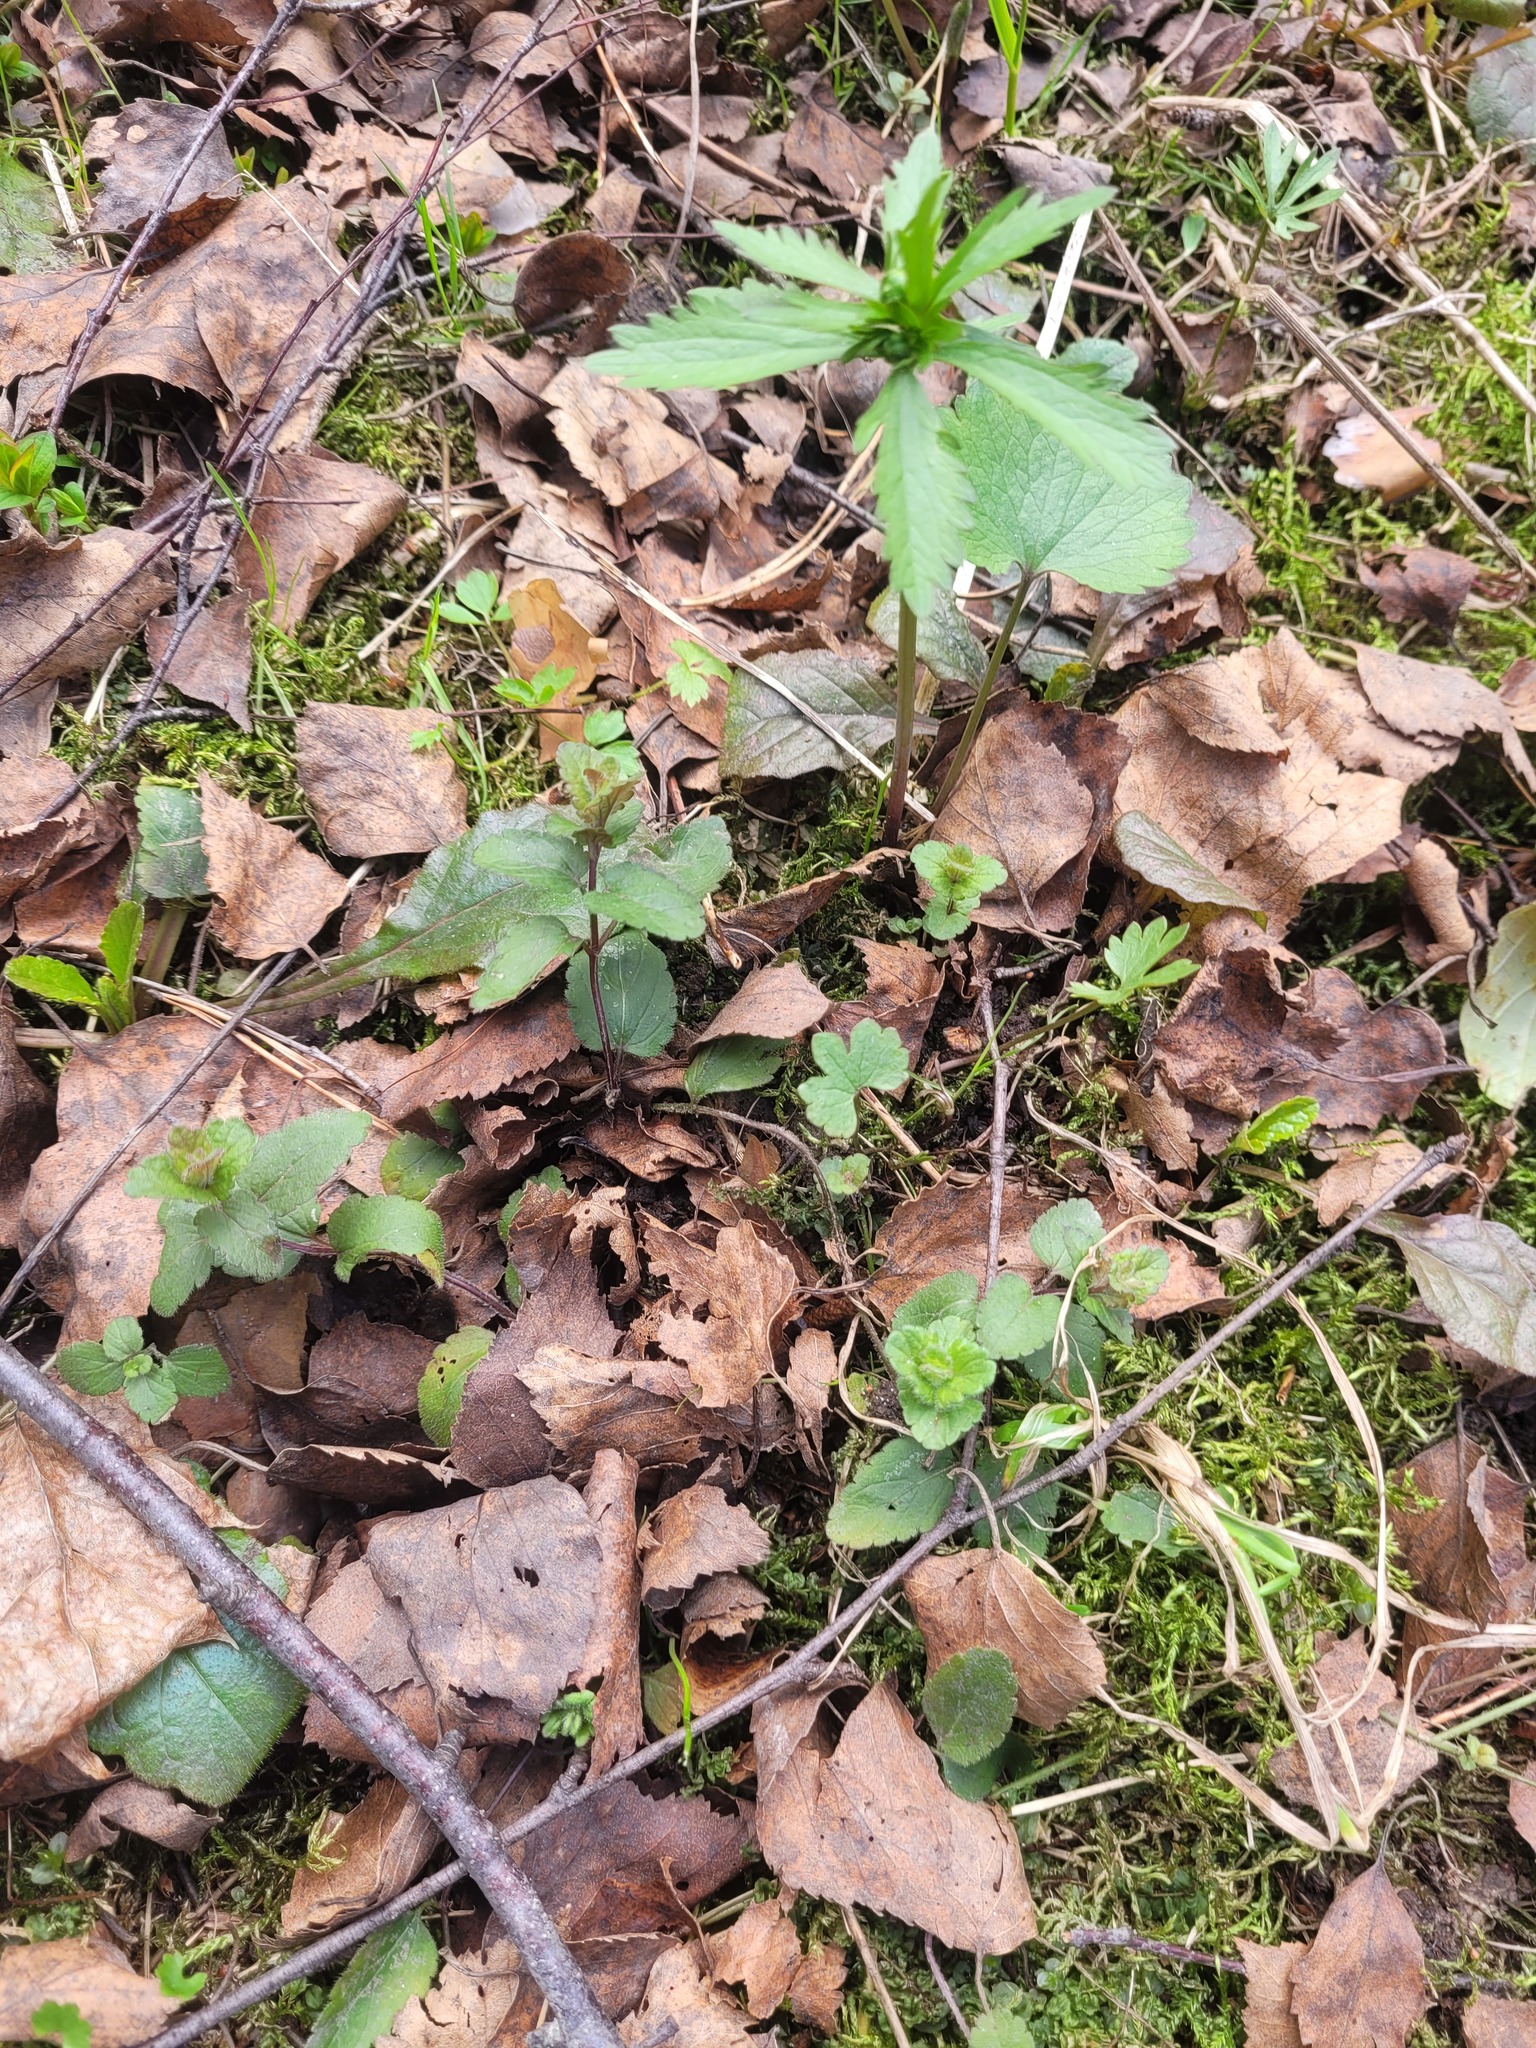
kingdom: Plantae
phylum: Tracheophyta
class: Magnoliopsida
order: Lamiales
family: Plantaginaceae
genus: Veronica
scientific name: Veronica chamaedrys
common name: Germander speedwell
